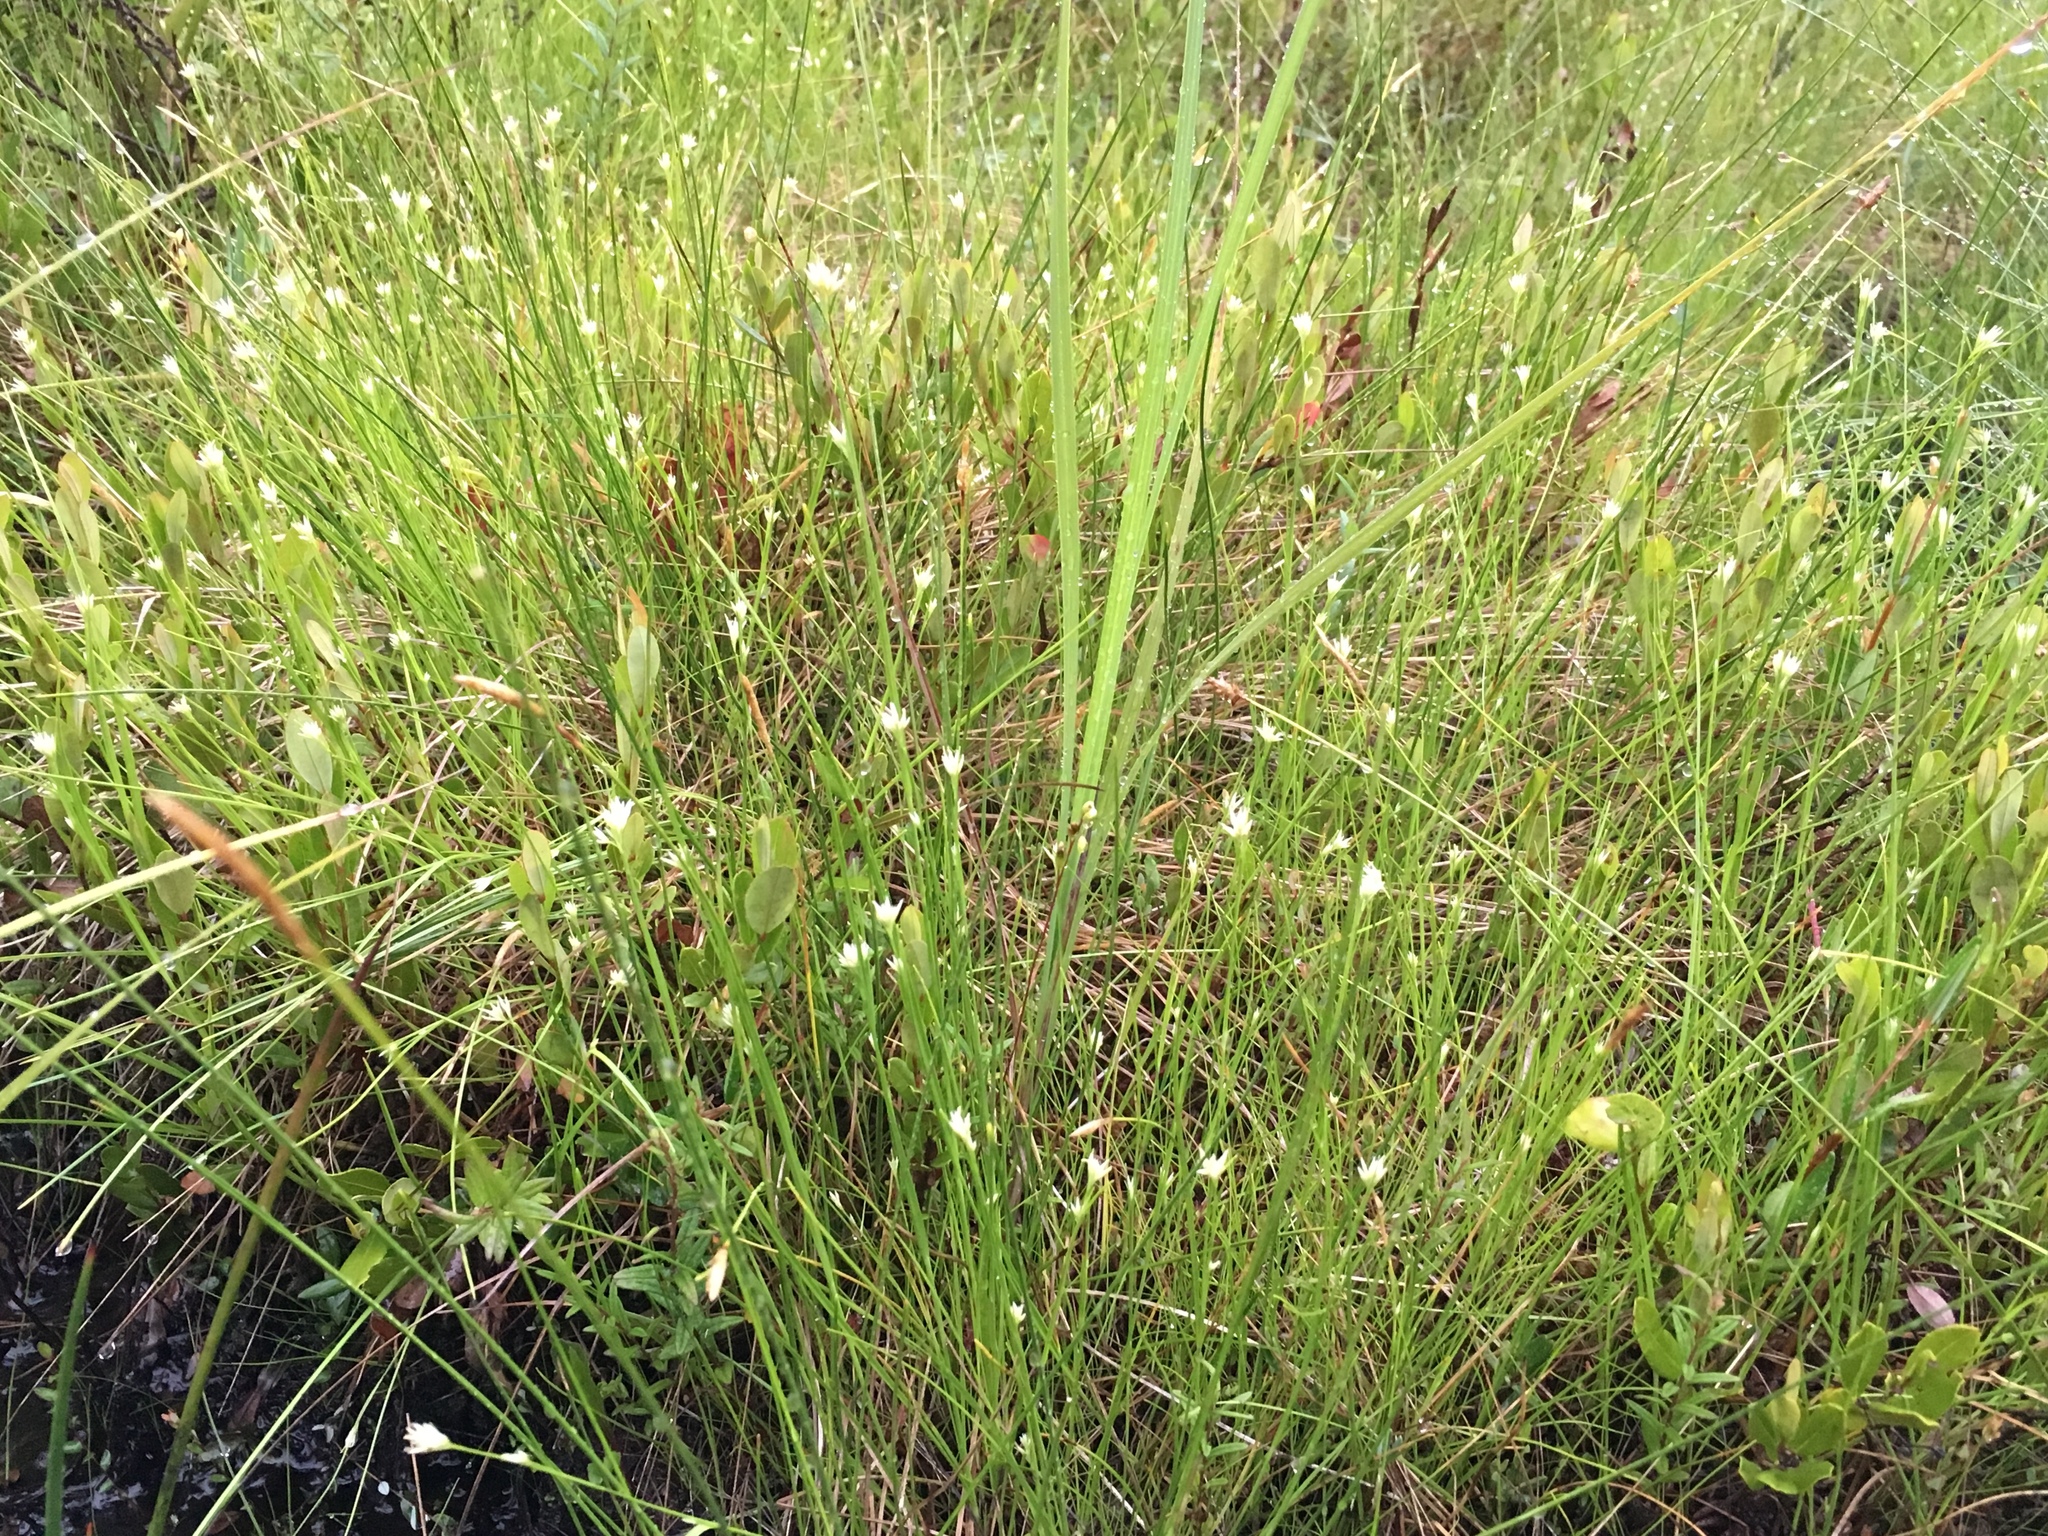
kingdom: Plantae
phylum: Tracheophyta
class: Liliopsida
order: Poales
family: Cyperaceae
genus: Rhynchospora
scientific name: Rhynchospora alba
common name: White beak-sedge
